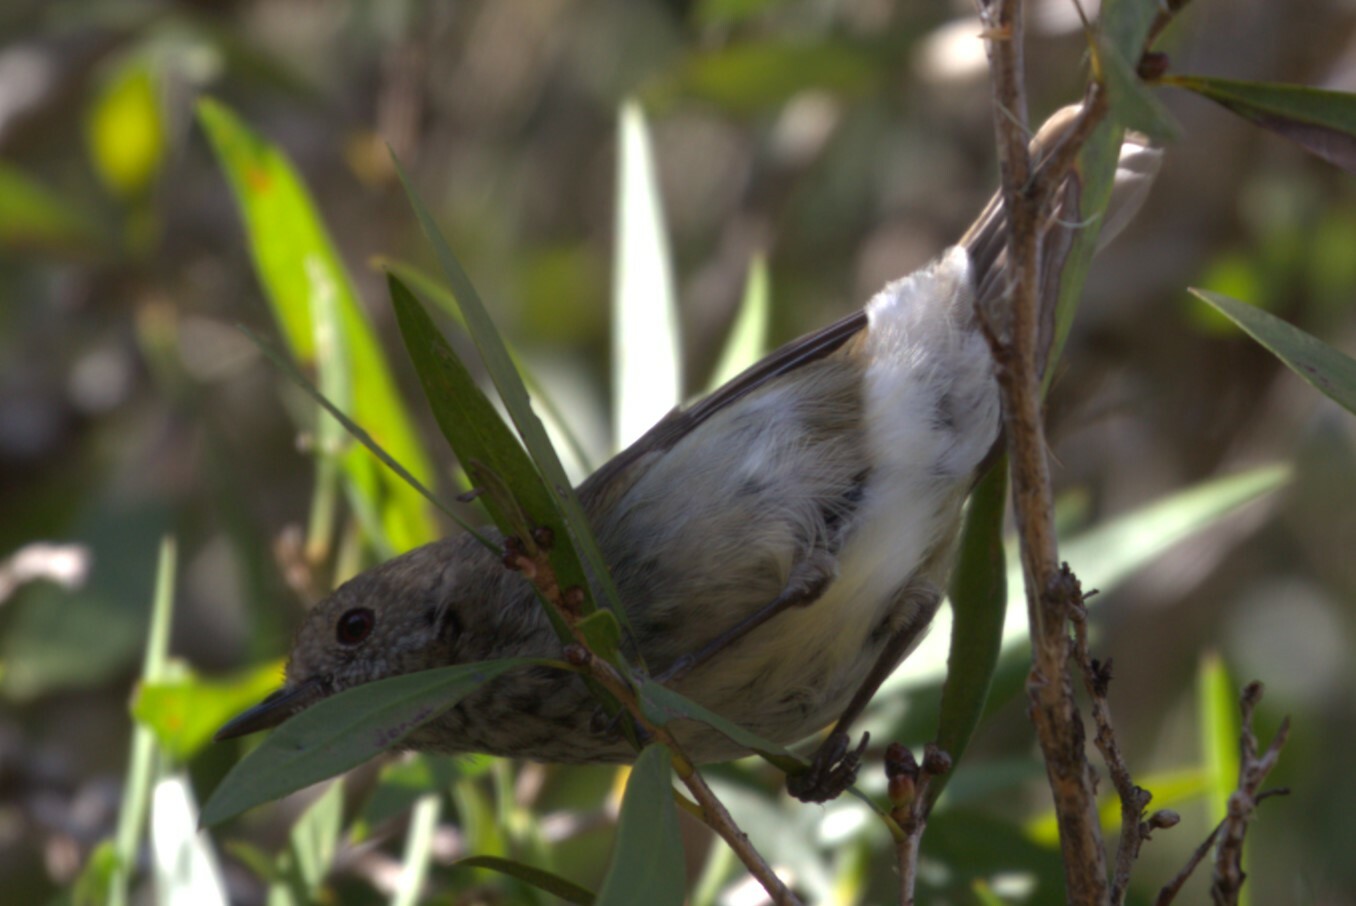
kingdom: Animalia
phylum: Chordata
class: Aves
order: Passeriformes
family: Acanthizidae
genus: Acanthiza
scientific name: Acanthiza pusilla
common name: Brown thornbill
